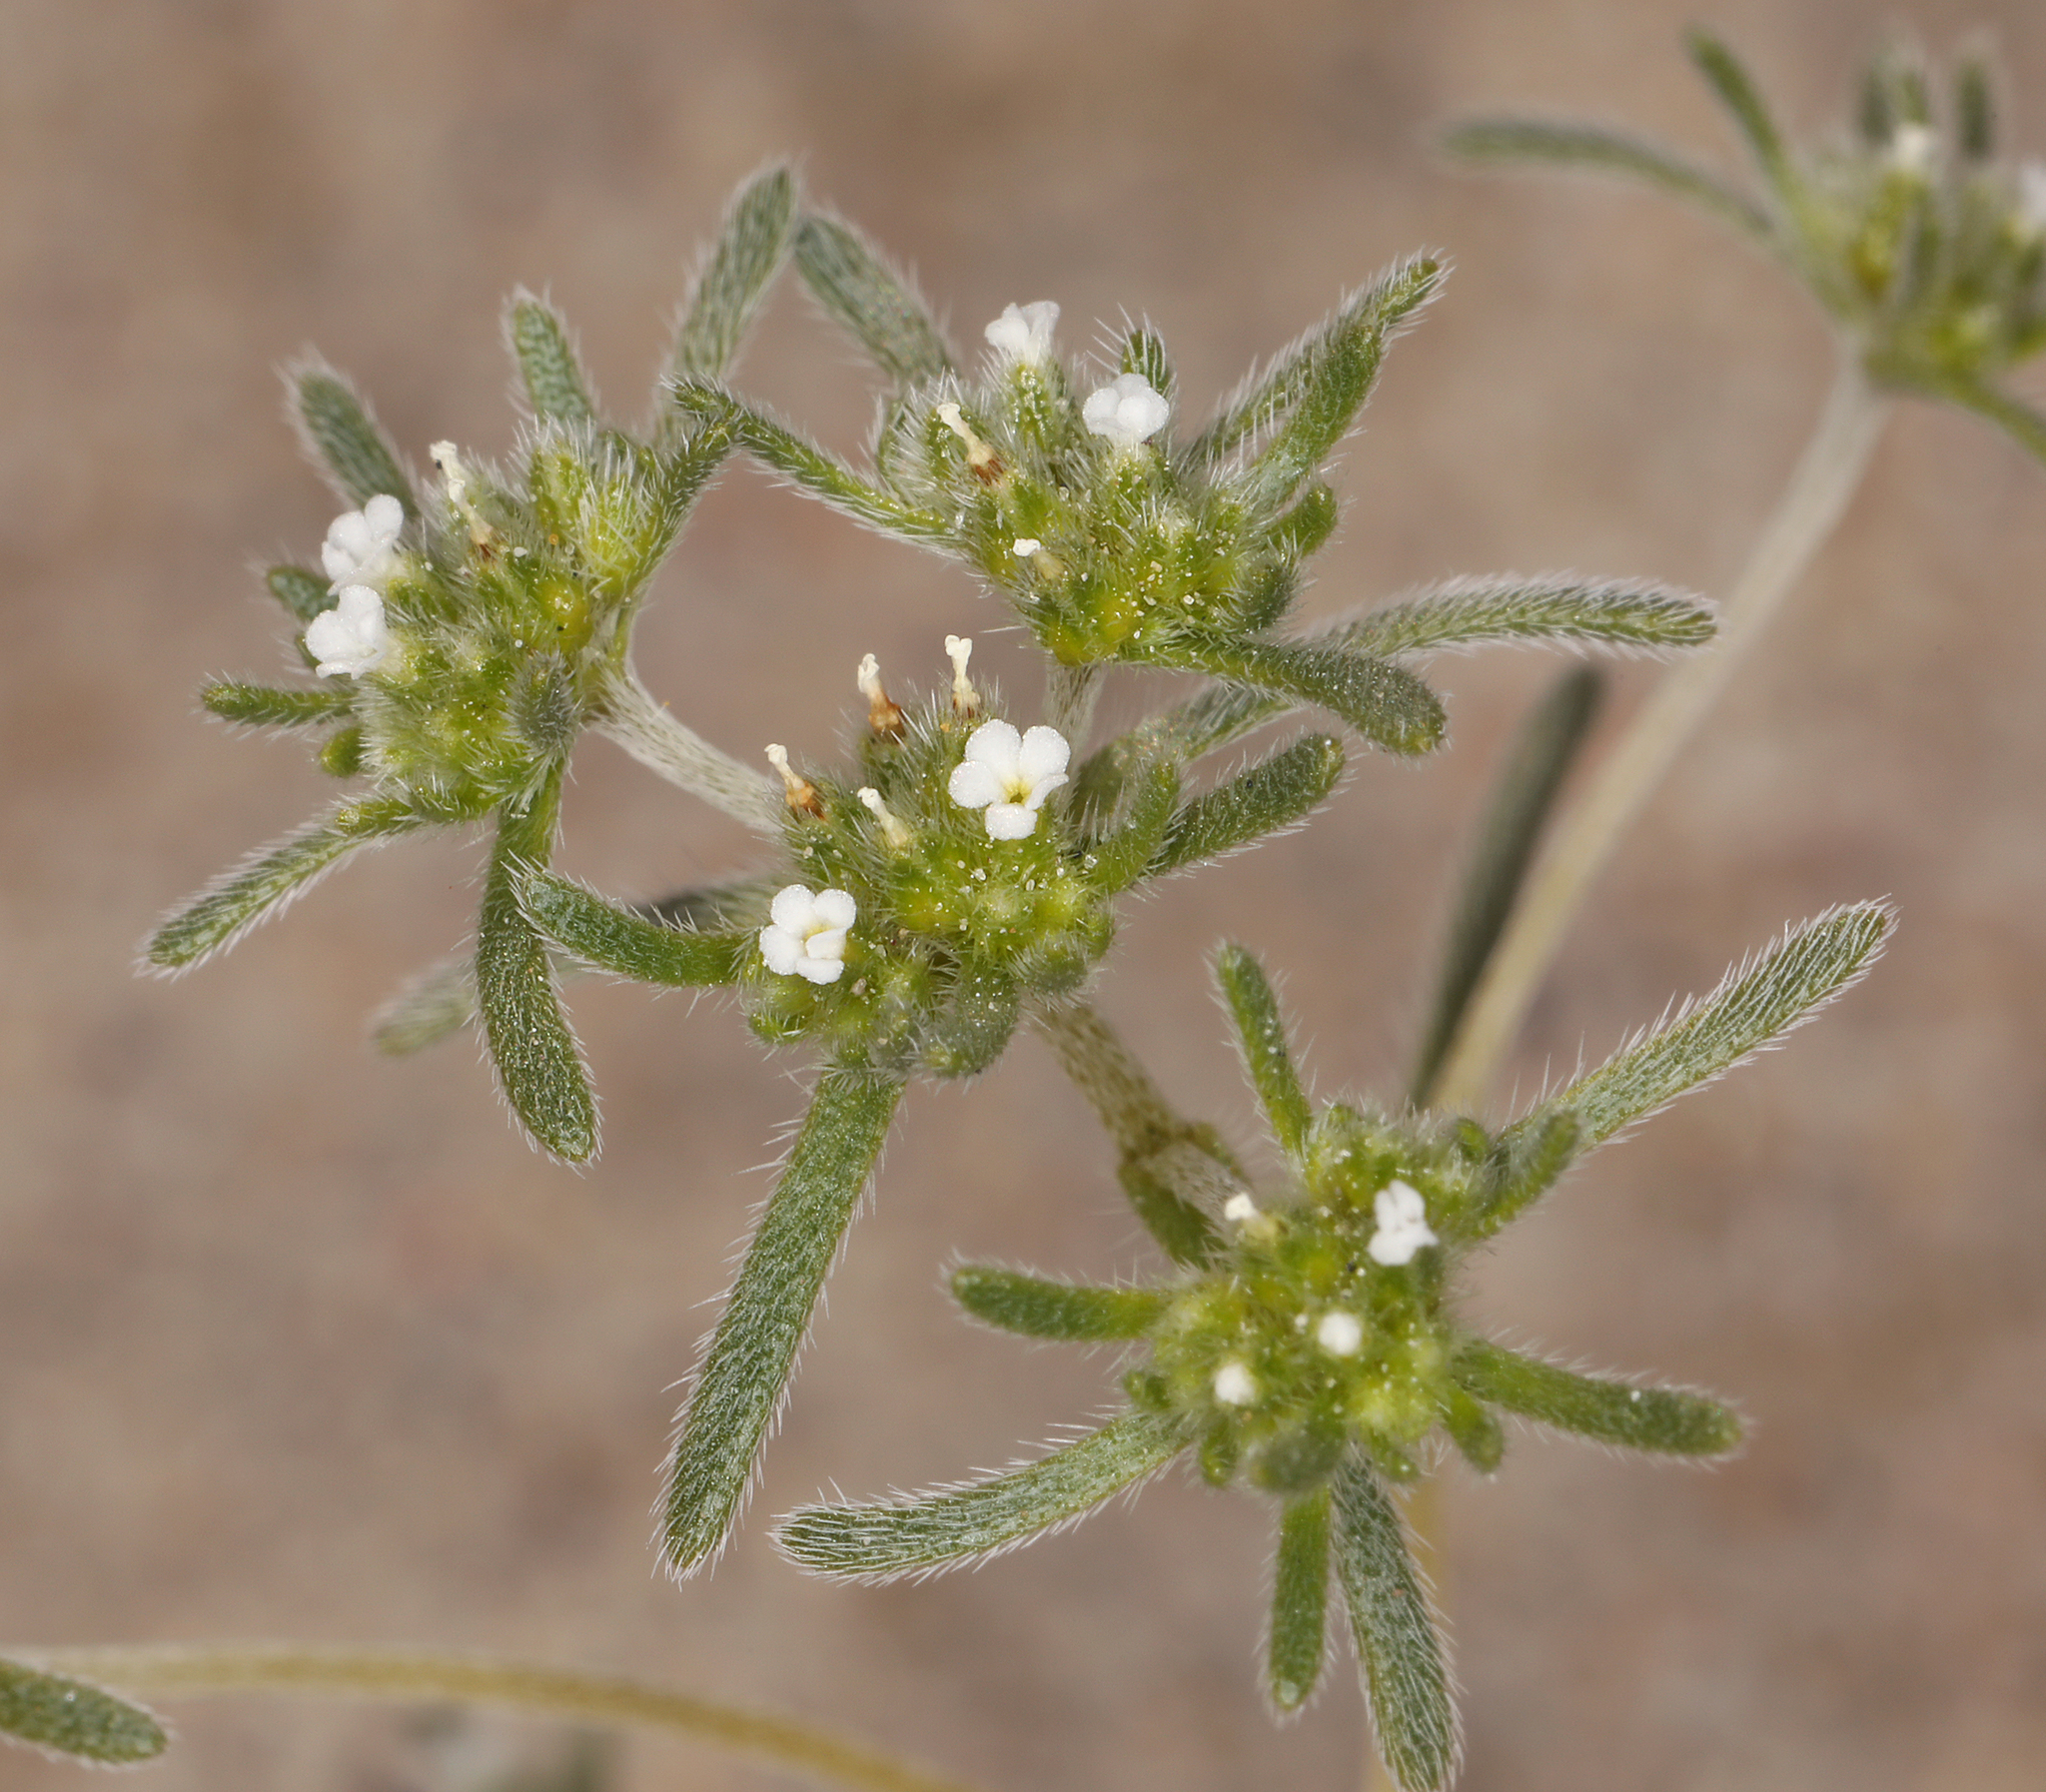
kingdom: Plantae
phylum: Tracheophyta
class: Magnoliopsida
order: Boraginales
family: Boraginaceae
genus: Eremocarya
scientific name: Eremocarya micrantha
